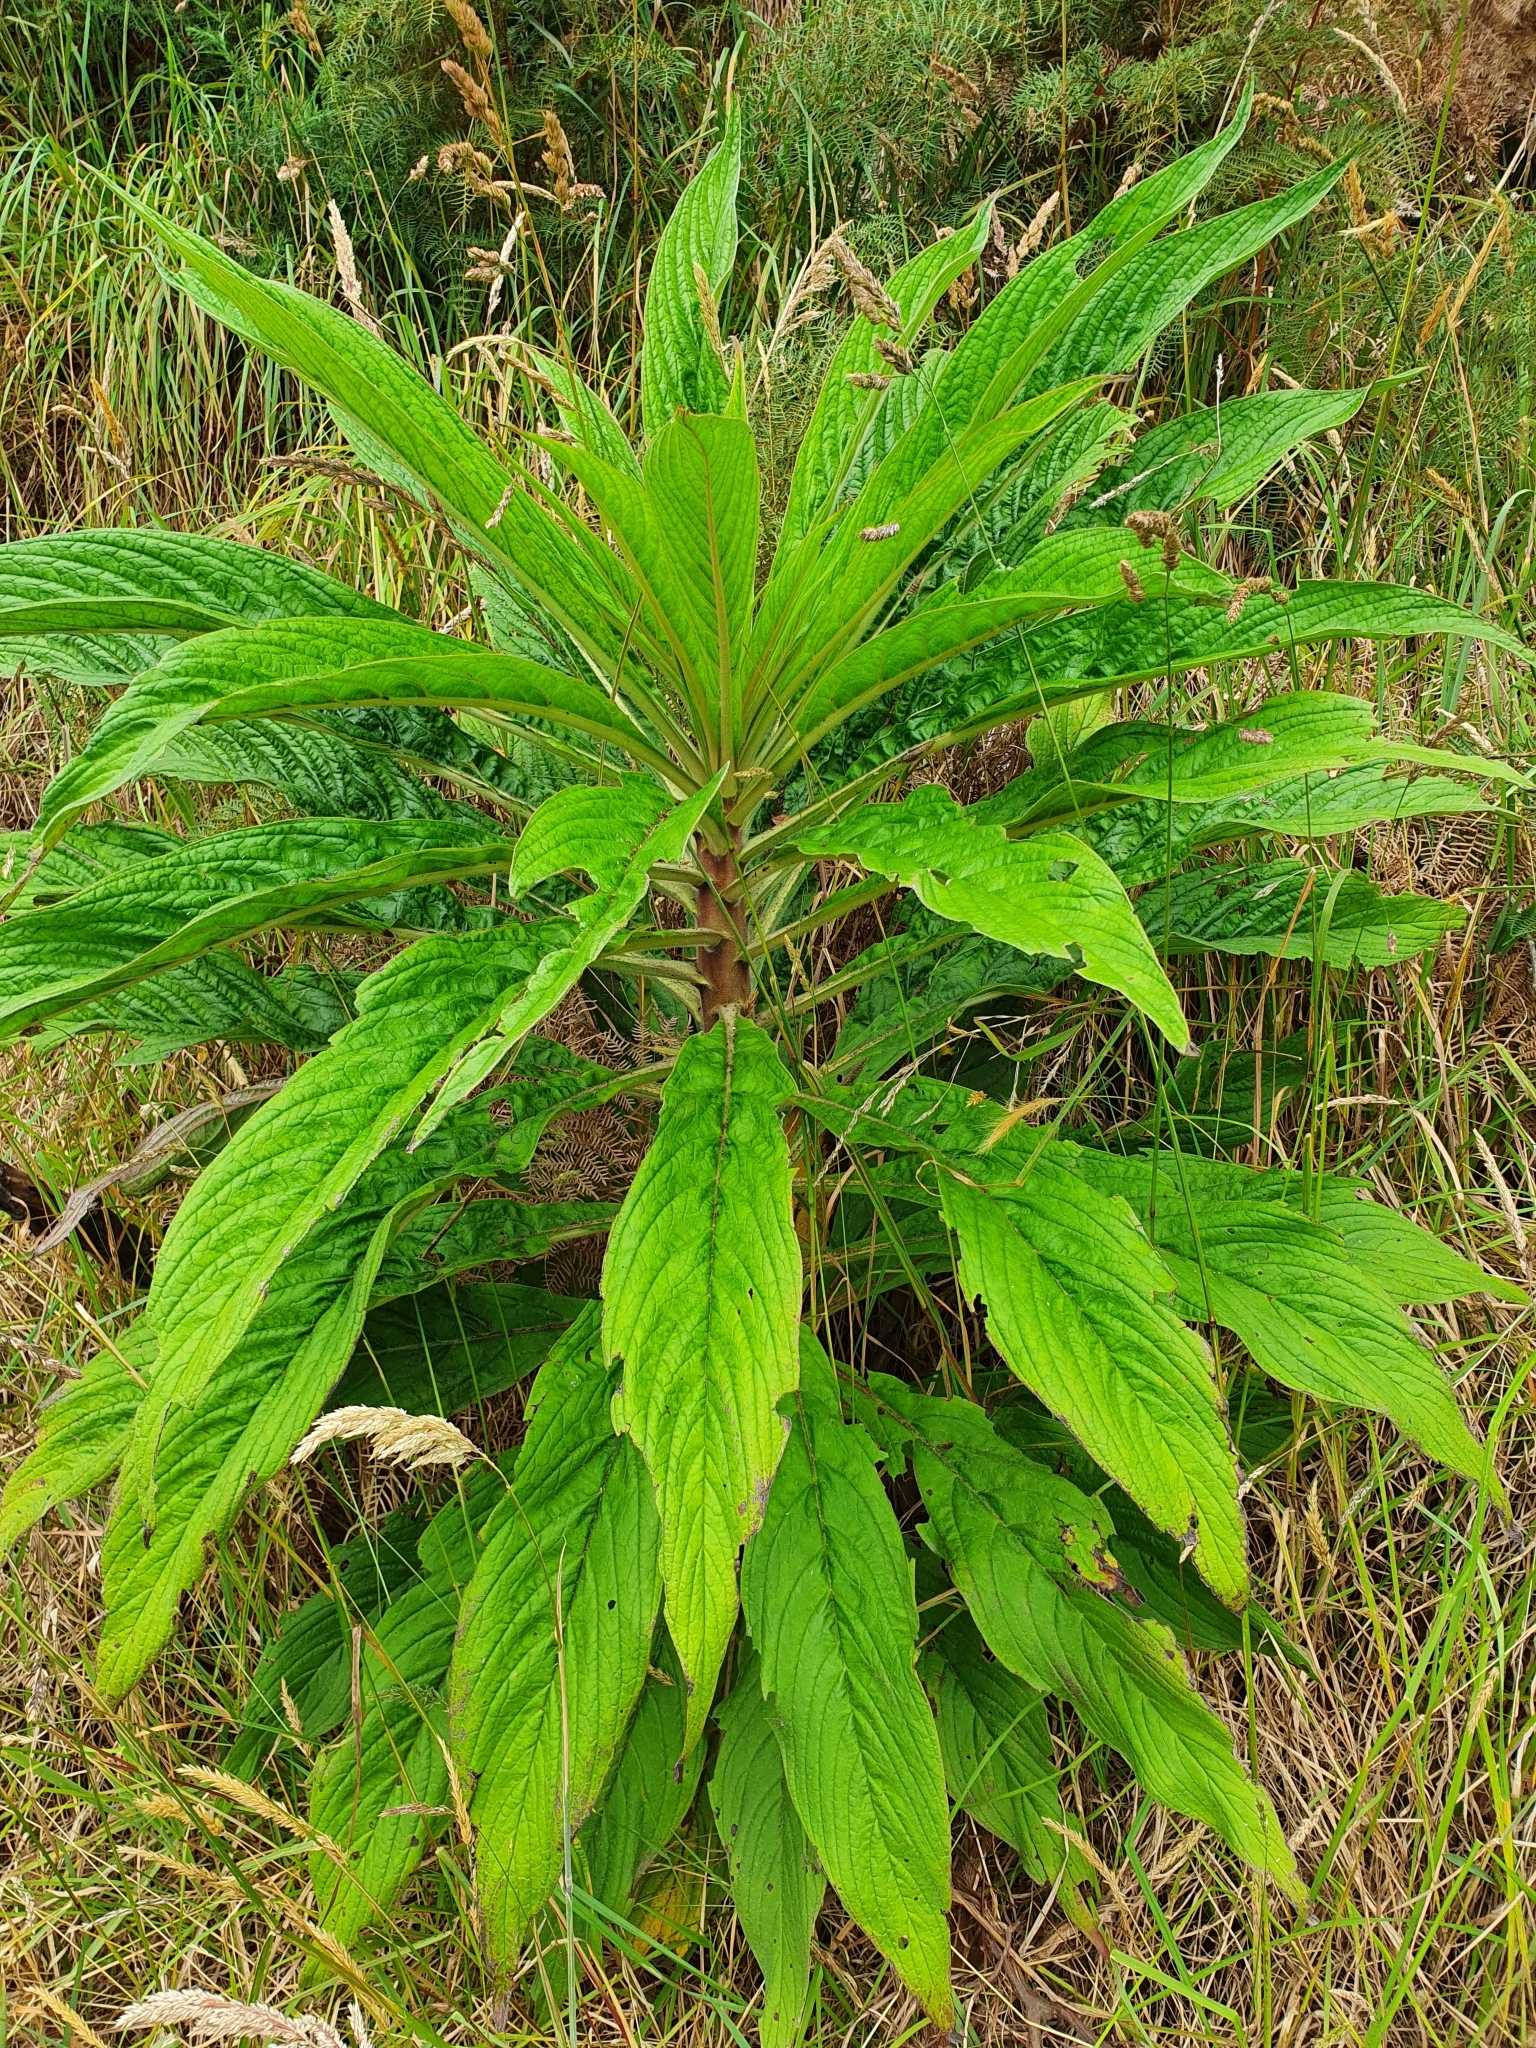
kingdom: Plantae
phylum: Tracheophyta
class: Magnoliopsida
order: Boraginales
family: Boraginaceae
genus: Echium
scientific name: Echium pininana
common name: Giant viper's-bugloss
